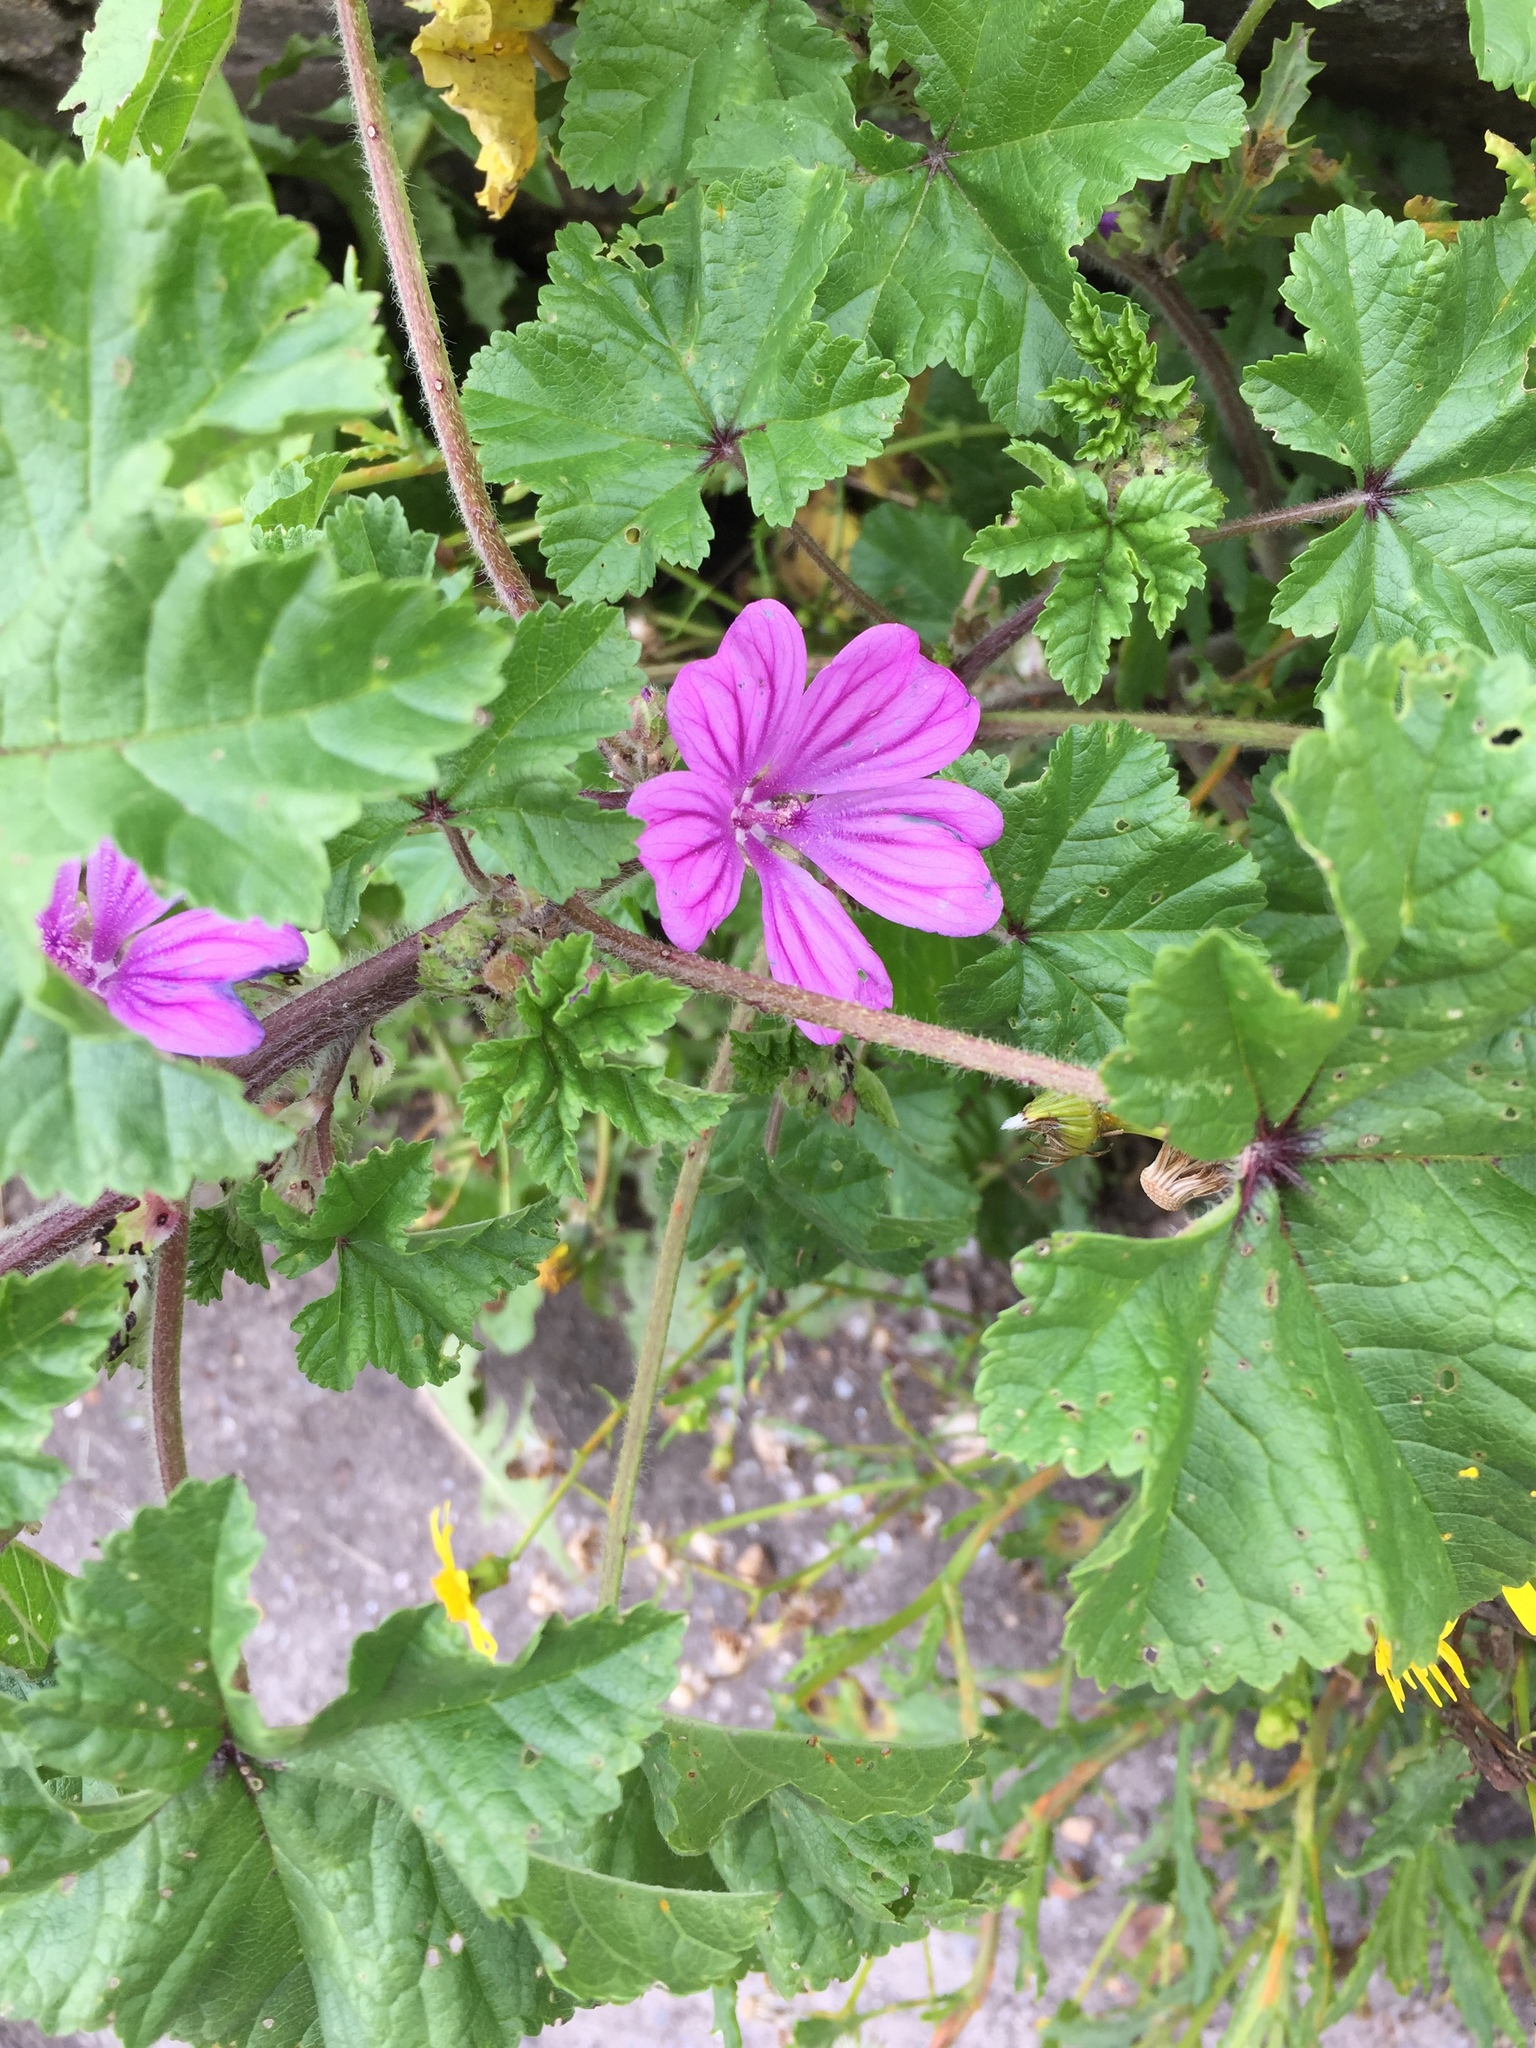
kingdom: Plantae
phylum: Tracheophyta
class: Magnoliopsida
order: Malvales
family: Malvaceae
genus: Malva
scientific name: Malva sylvestris
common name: Common mallow
